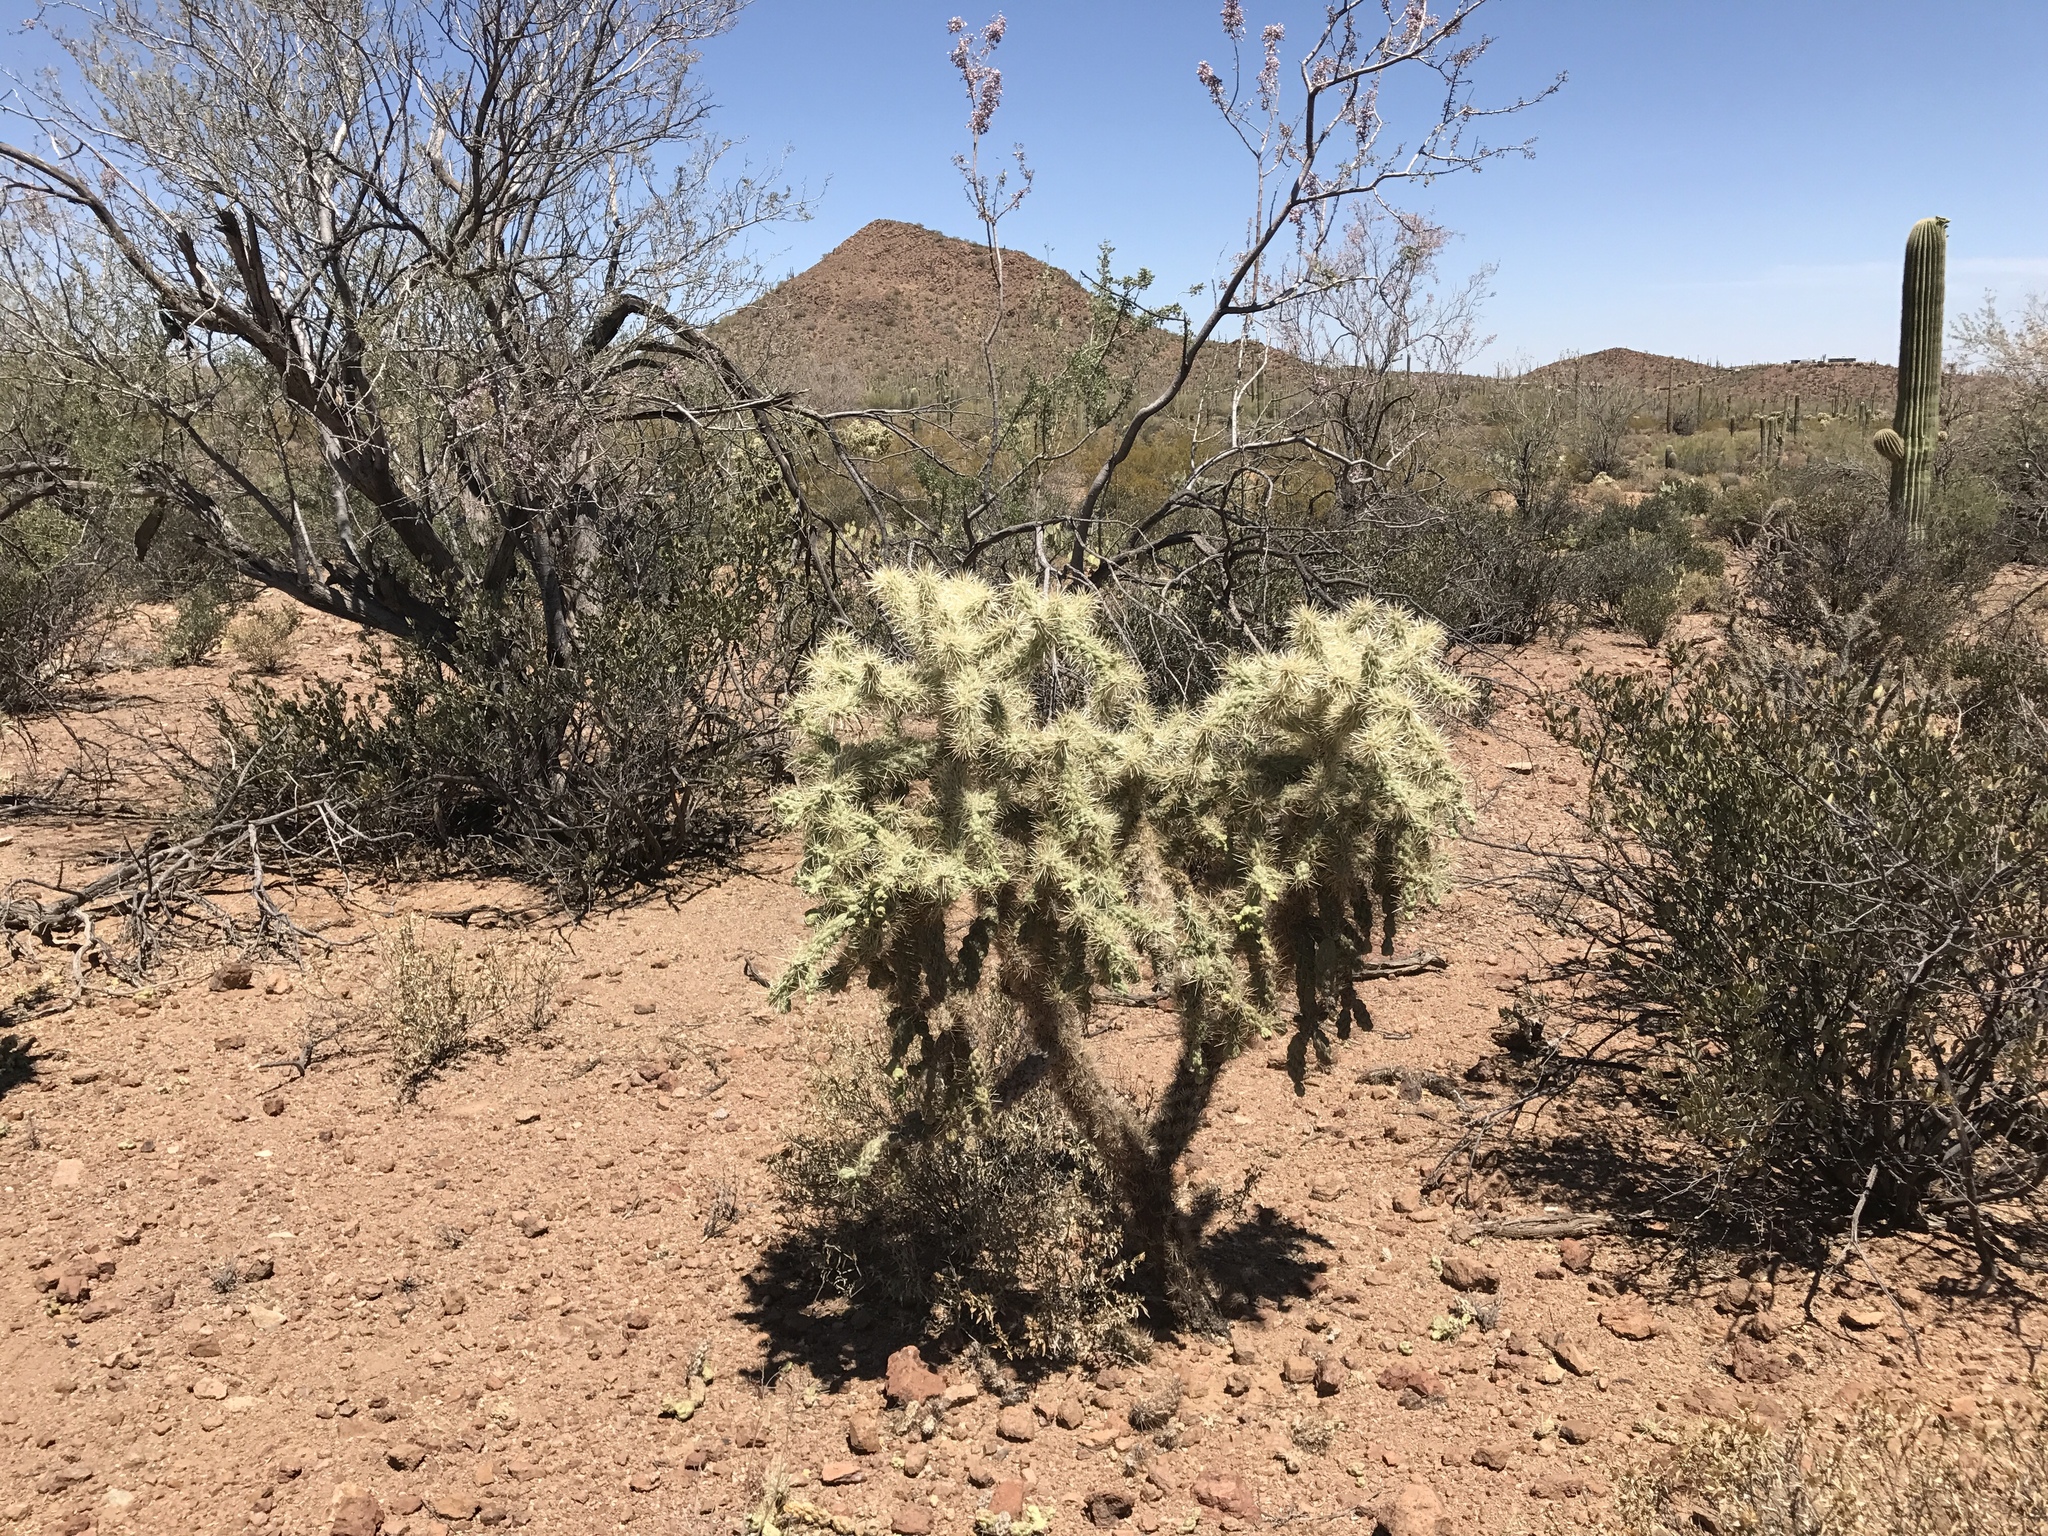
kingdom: Plantae
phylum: Tracheophyta
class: Magnoliopsida
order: Caryophyllales
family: Cactaceae
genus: Cylindropuntia
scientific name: Cylindropuntia fulgida
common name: Jumping cholla
